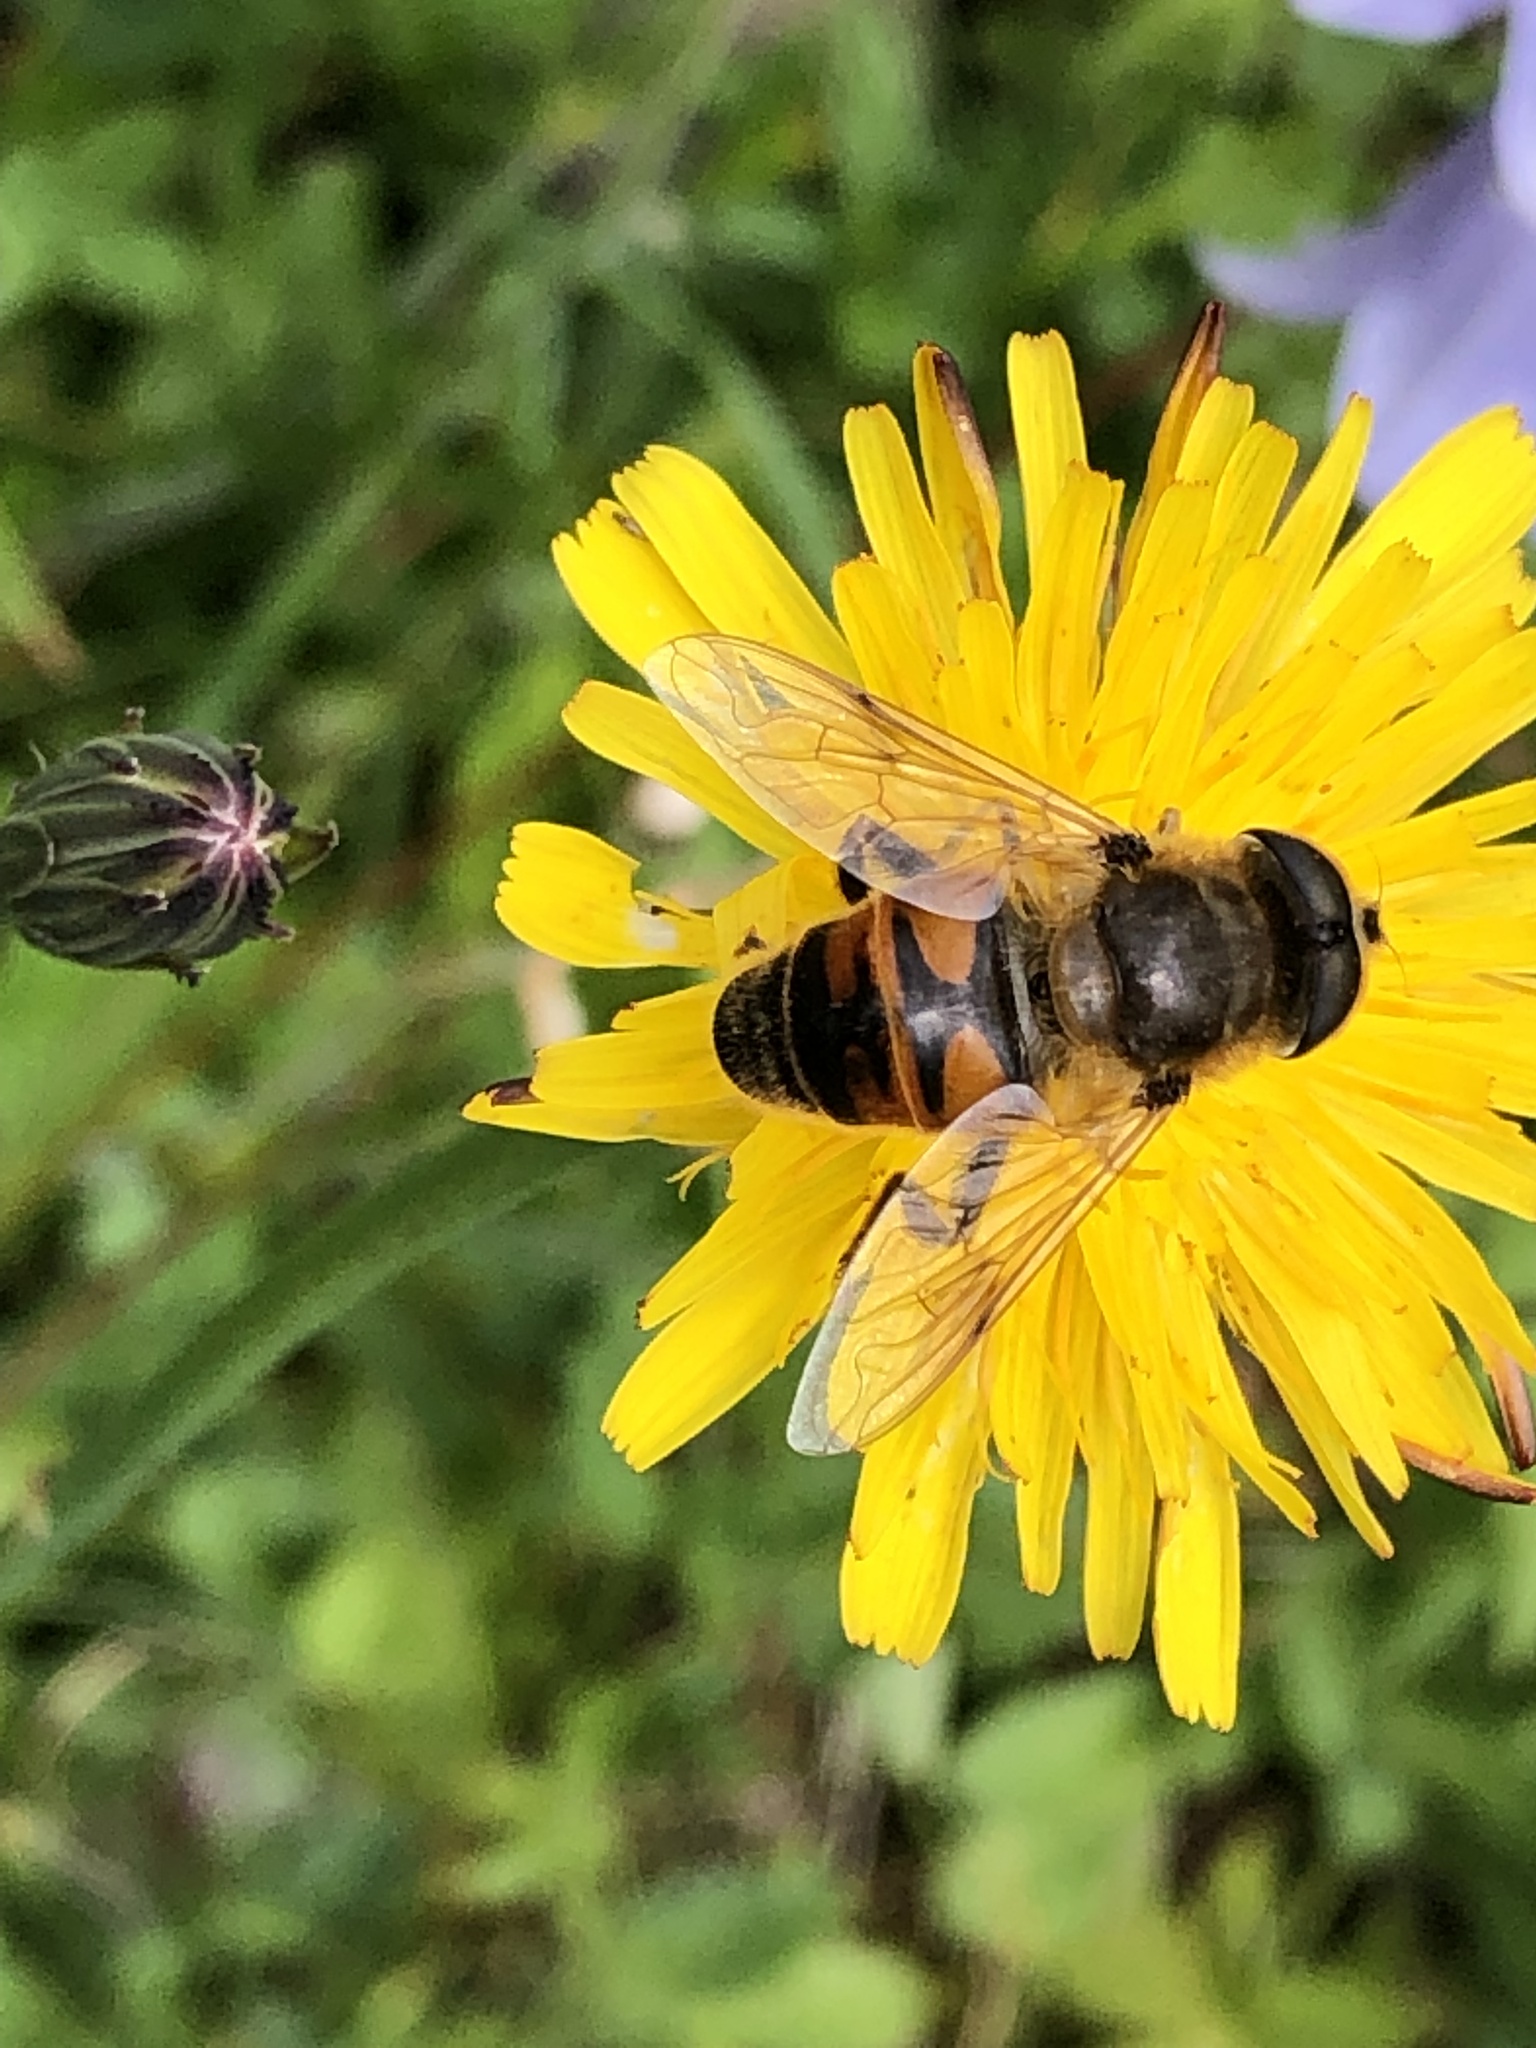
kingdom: Animalia
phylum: Arthropoda
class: Insecta
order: Diptera
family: Syrphidae
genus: Eristalis
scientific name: Eristalis tenax
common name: Drone fly
